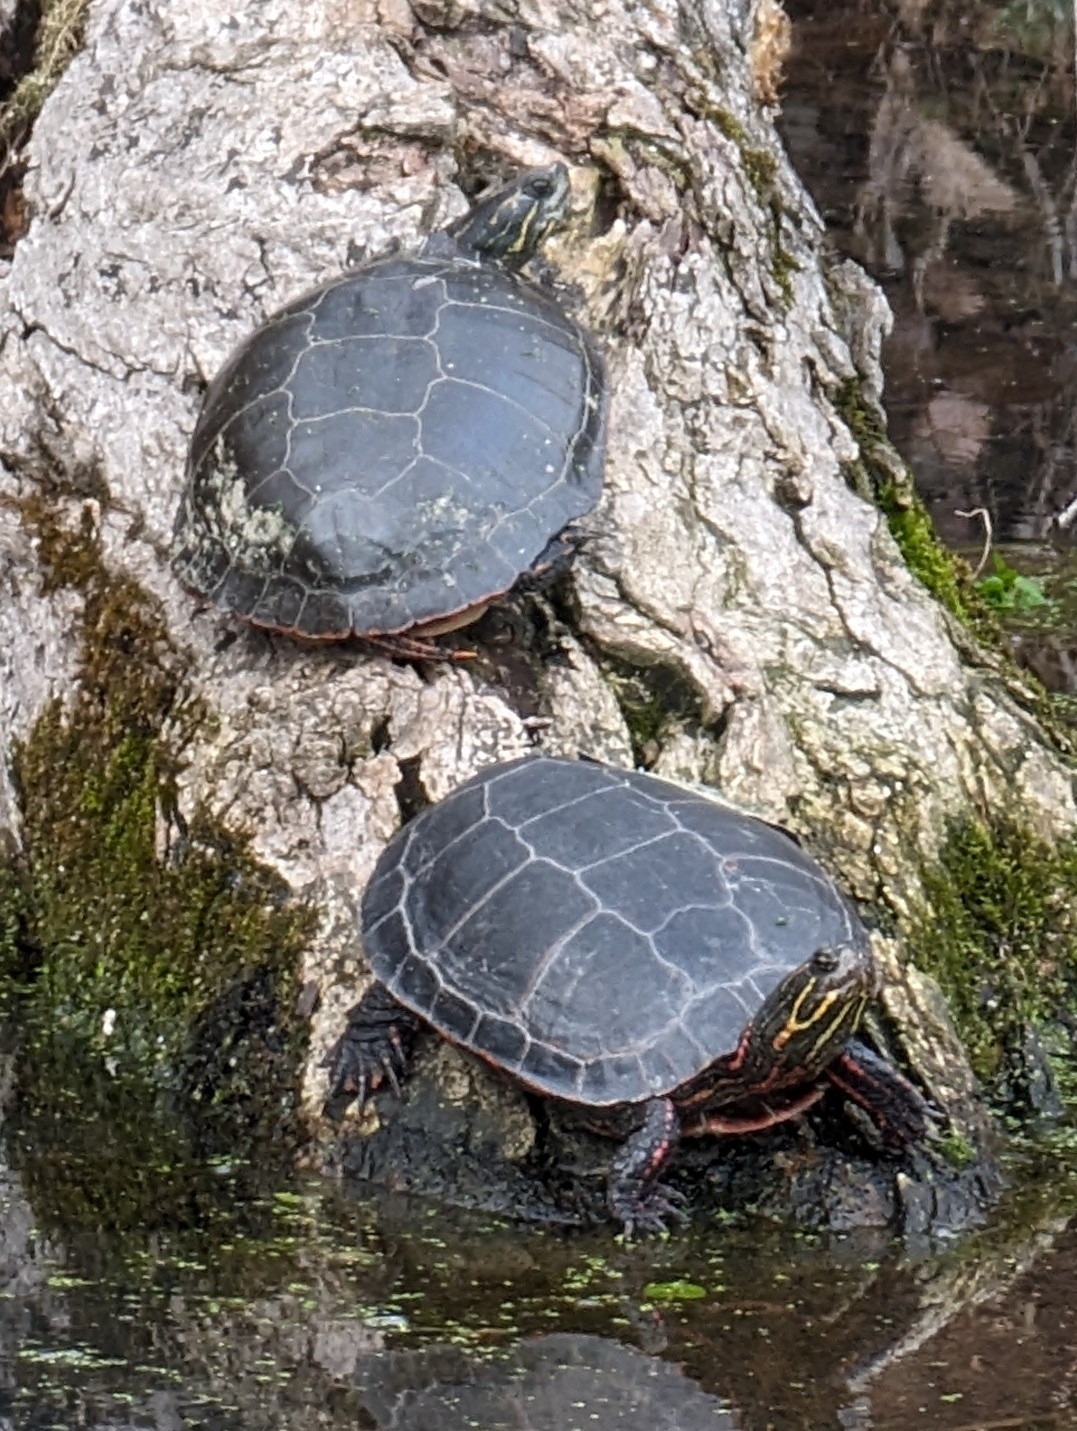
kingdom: Animalia
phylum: Chordata
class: Testudines
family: Emydidae
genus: Chrysemys
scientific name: Chrysemys picta
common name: Painted turtle
